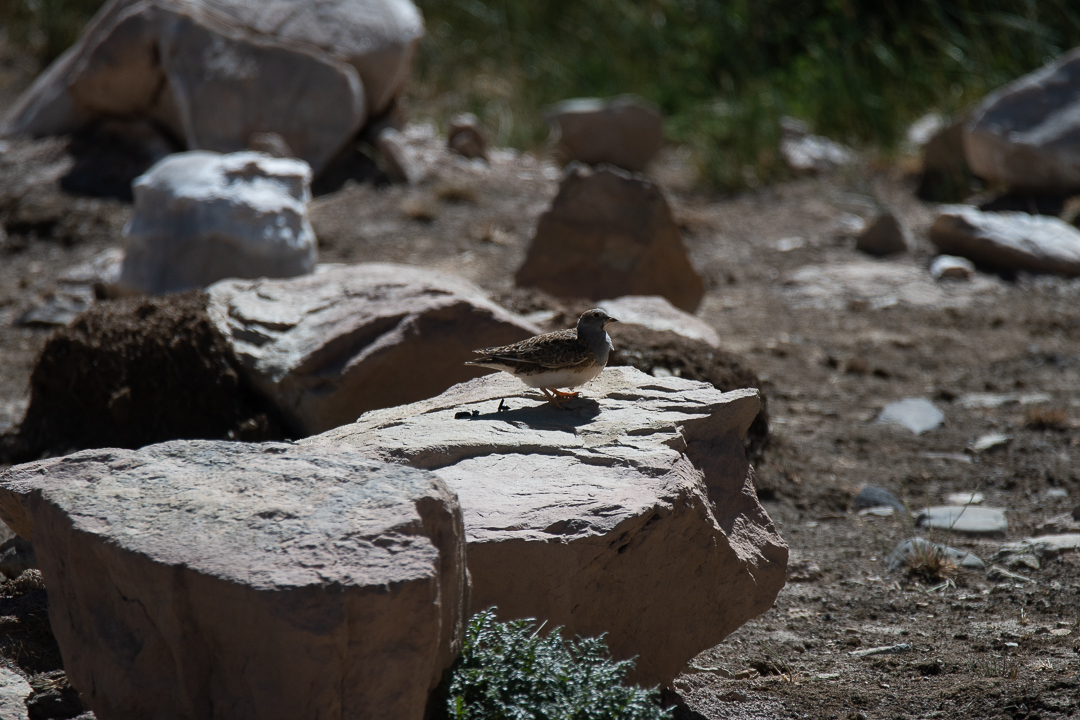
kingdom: Animalia
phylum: Chordata
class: Aves
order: Charadriiformes
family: Thinocoridae
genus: Thinocorus
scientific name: Thinocorus orbignyianus
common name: Grey-breasted seedsnipe
